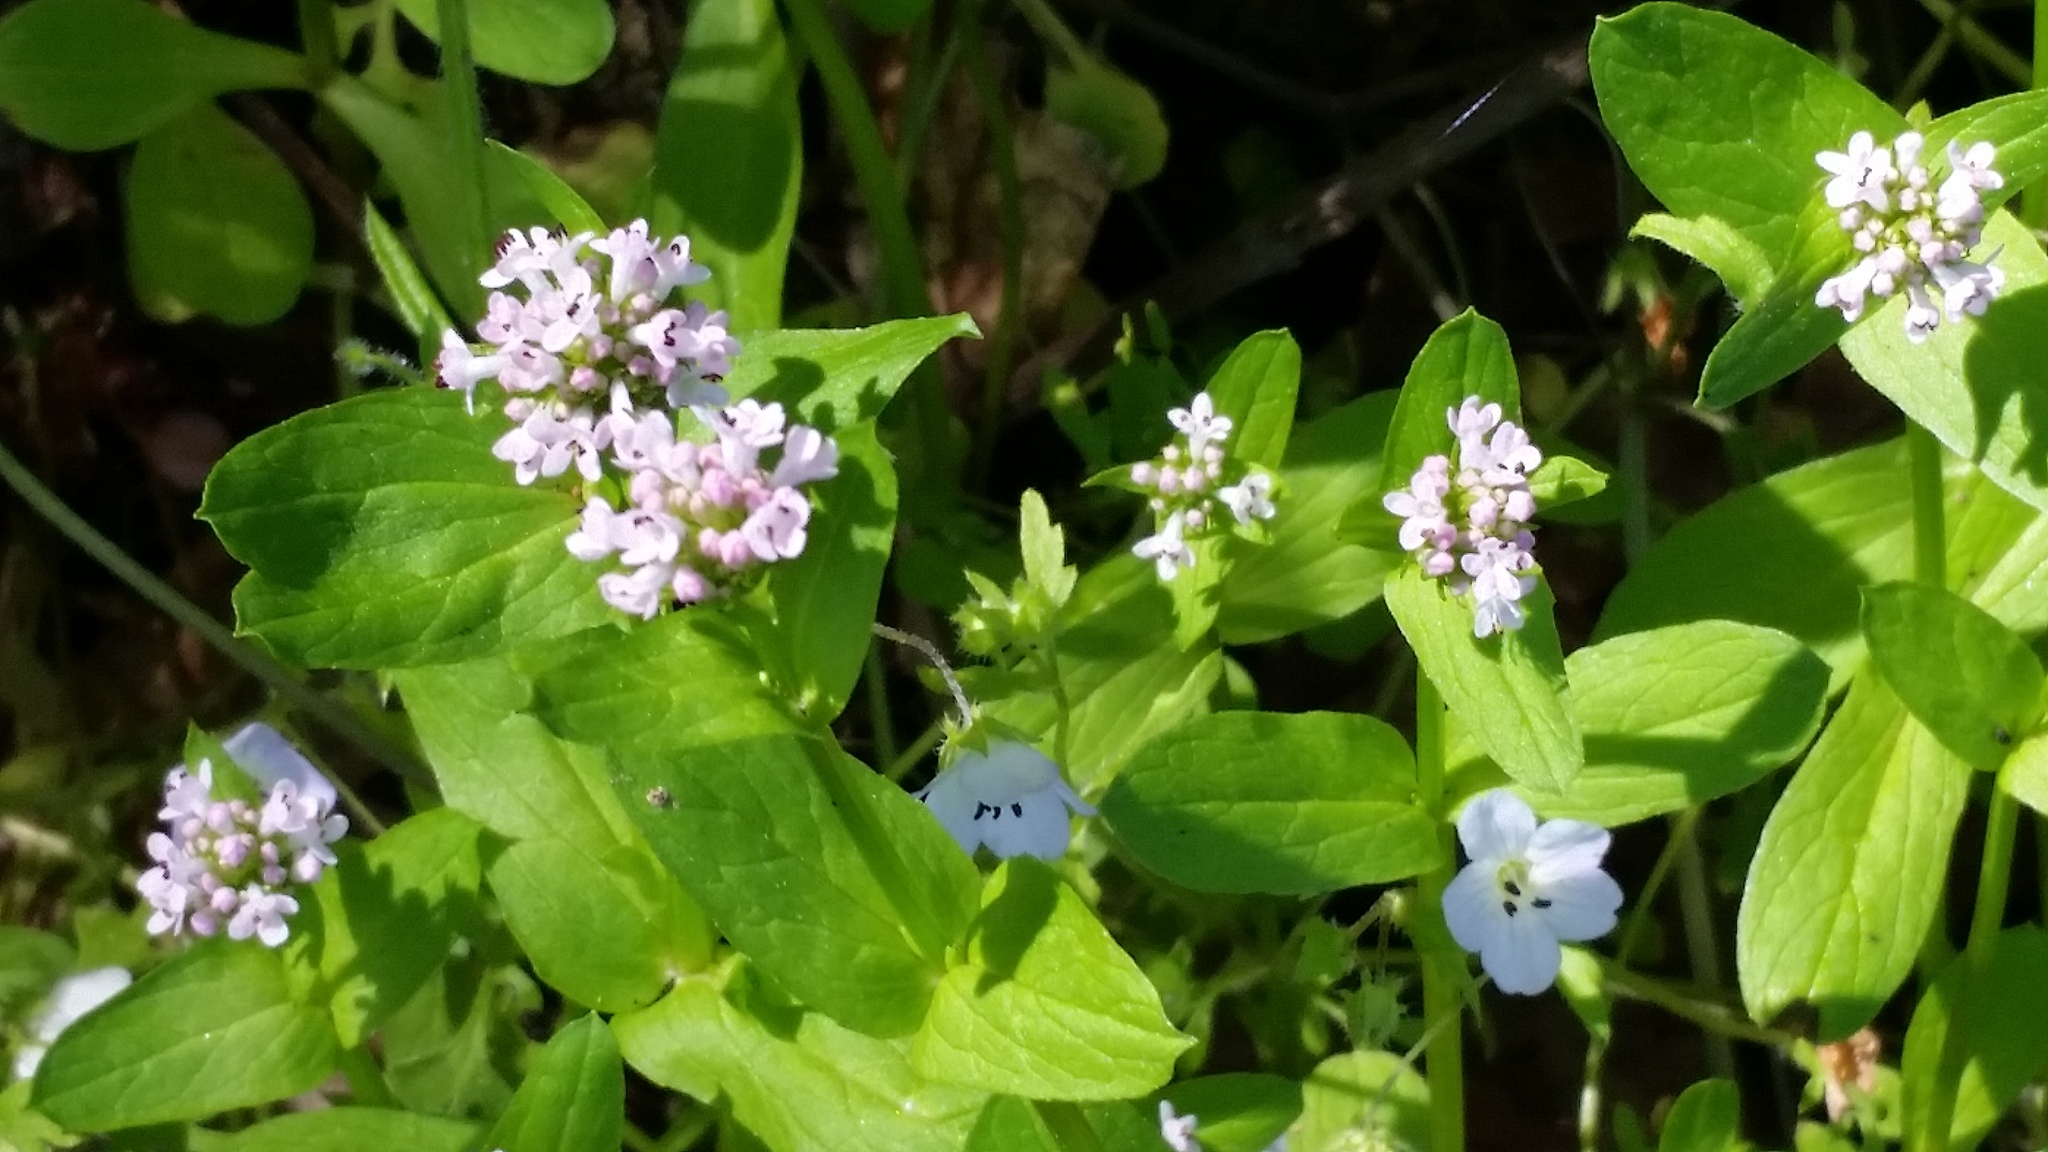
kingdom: Plantae
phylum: Tracheophyta
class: Magnoliopsida
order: Dipsacales
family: Caprifoliaceae
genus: Plectritis
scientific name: Plectritis ciliosa
